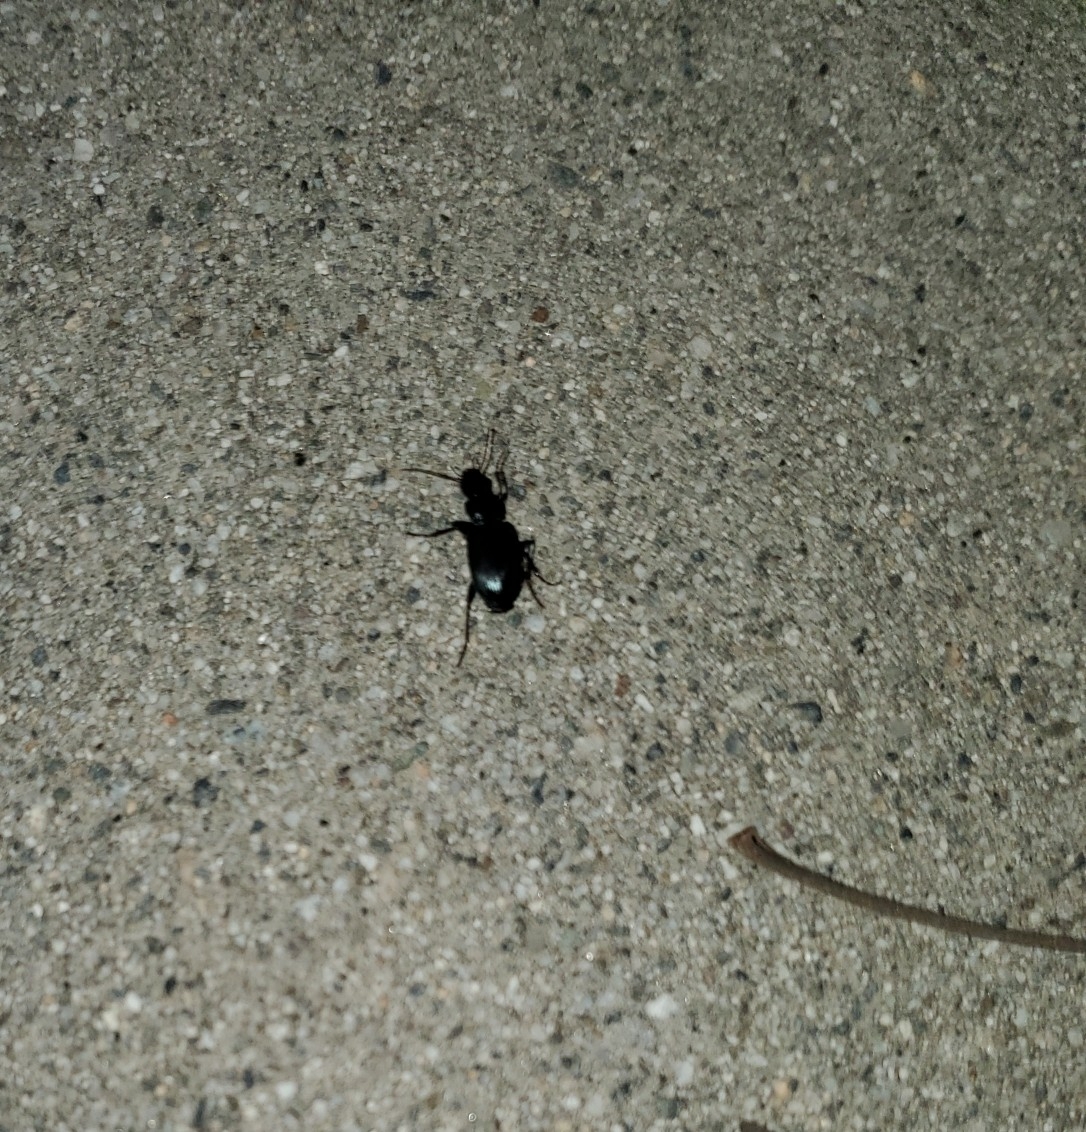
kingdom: Animalia
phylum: Arthropoda
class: Insecta
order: Coleoptera
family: Carabidae
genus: Laemostenus
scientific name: Laemostenus complanatus
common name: Cosmopolitan ground beetle
